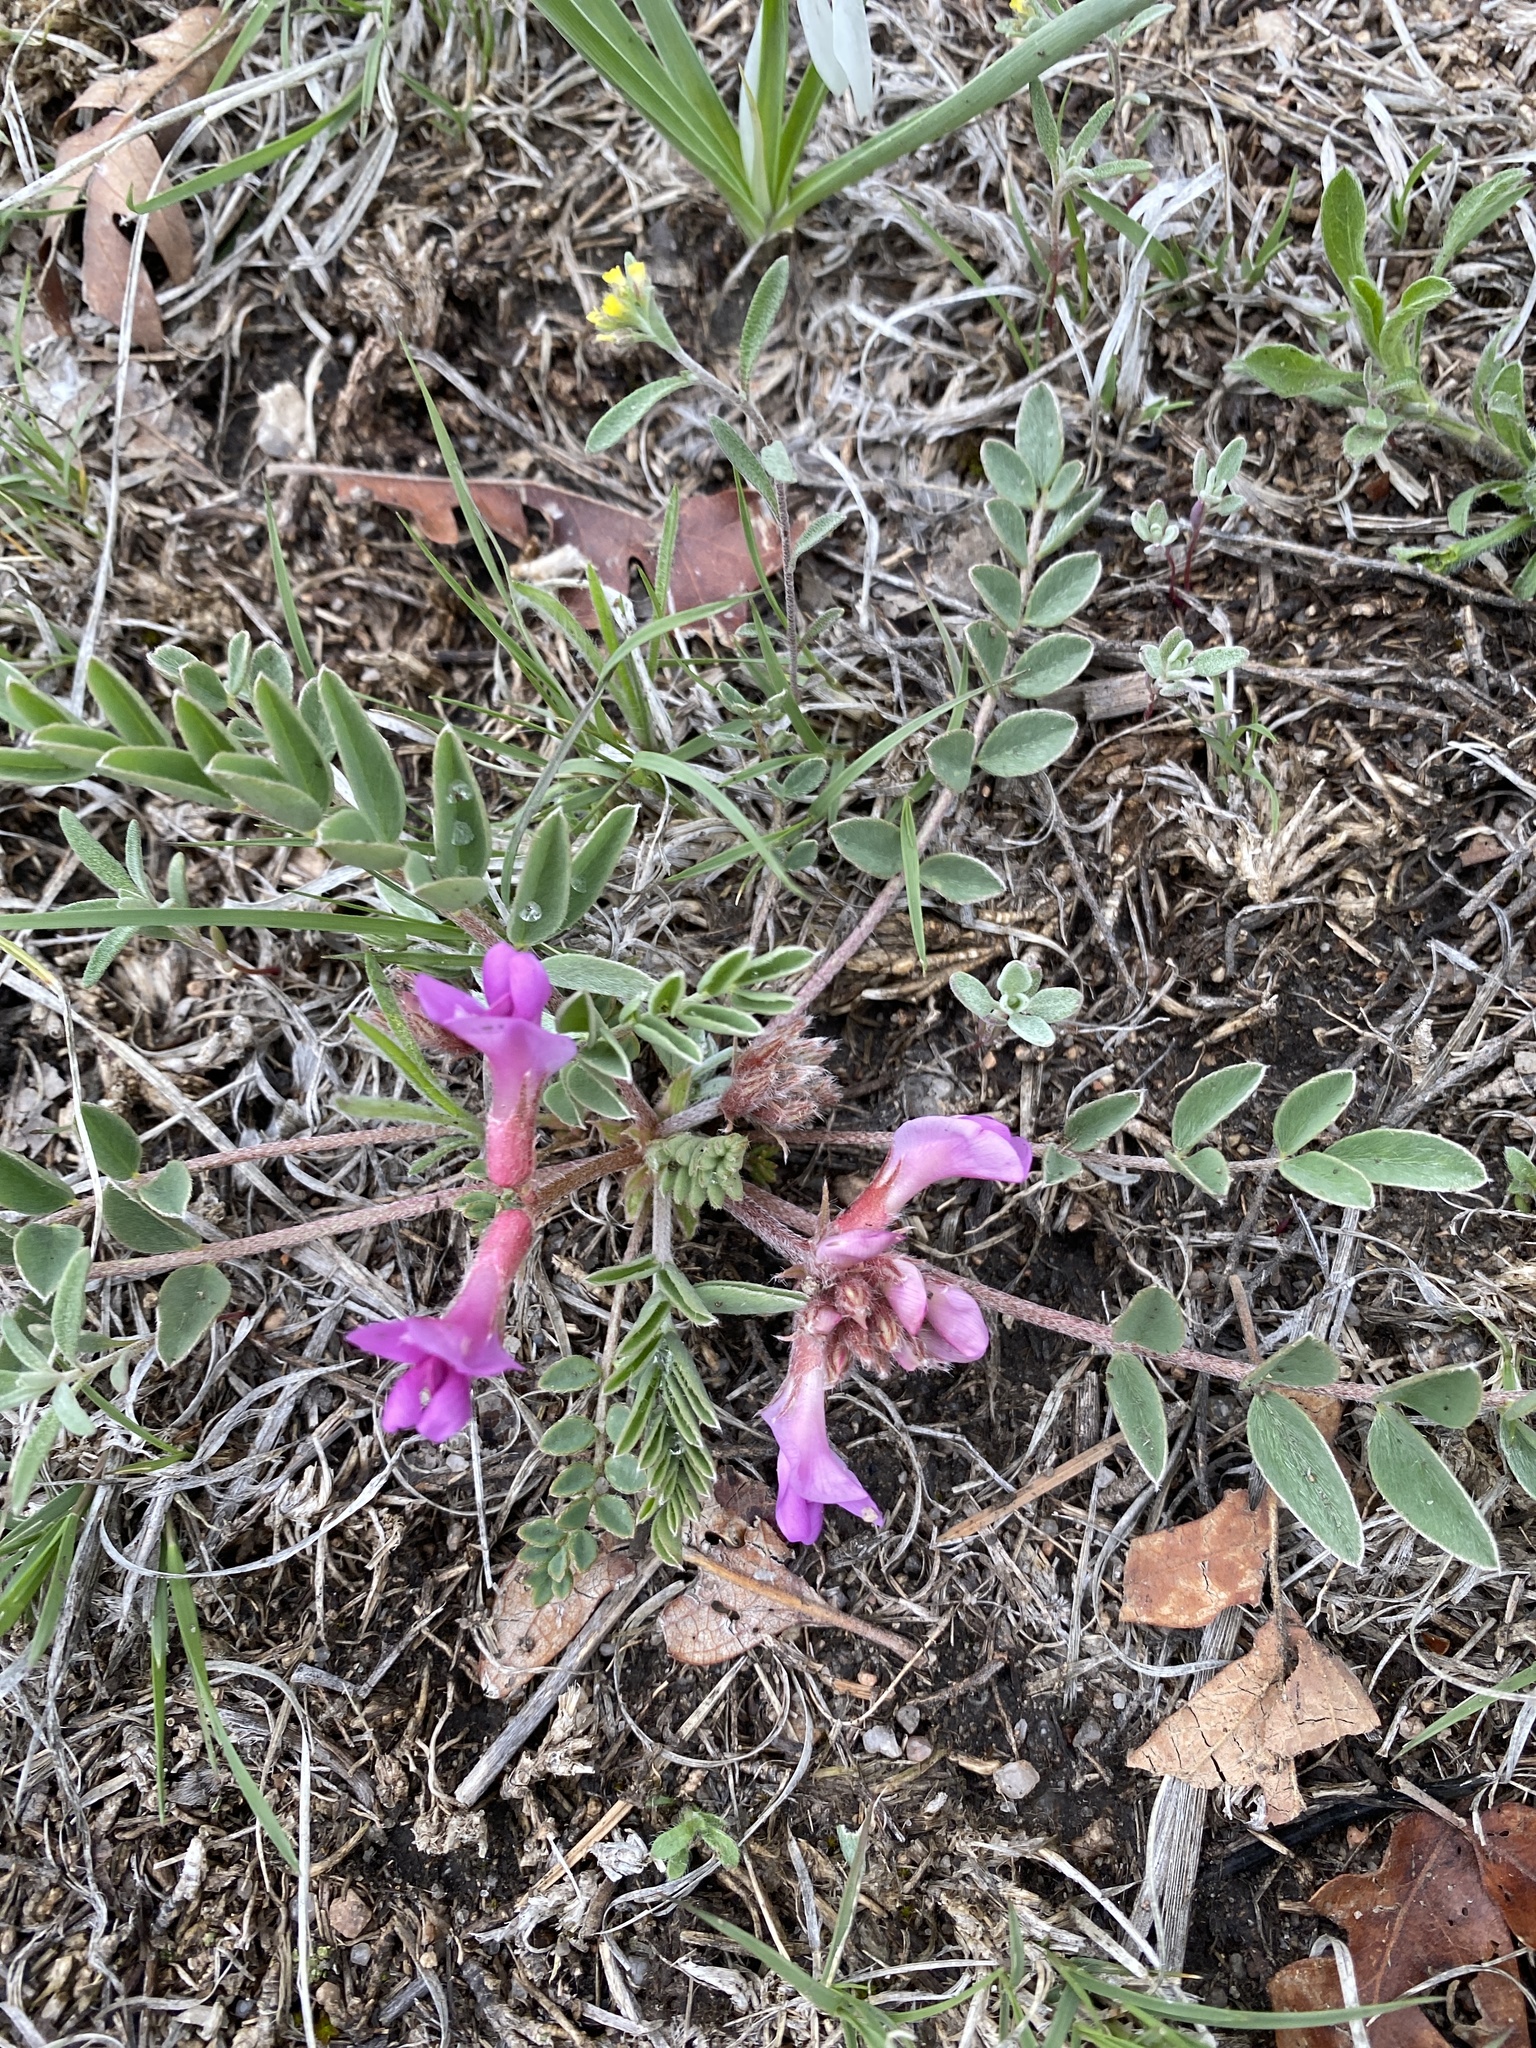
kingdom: Plantae
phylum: Tracheophyta
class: Magnoliopsida
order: Fabales
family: Fabaceae
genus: Astragalus
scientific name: Astragalus shortianus
